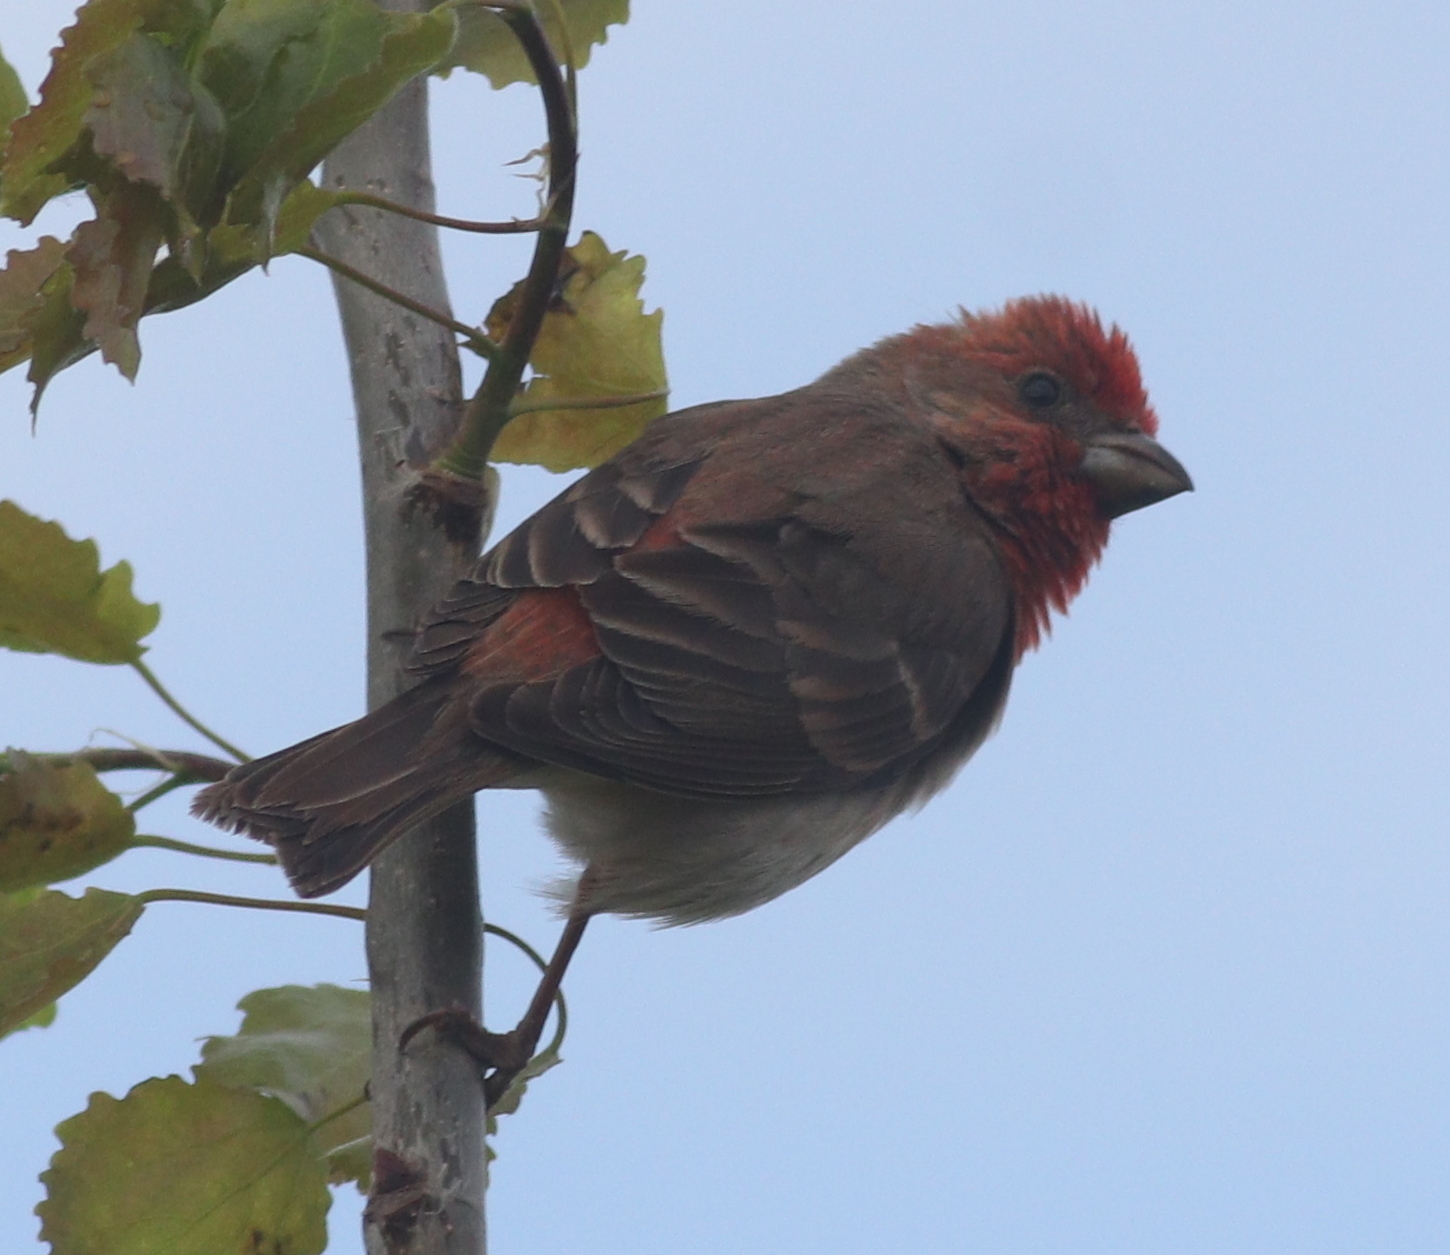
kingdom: Animalia
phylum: Chordata
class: Aves
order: Passeriformes
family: Fringillidae
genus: Carpodacus
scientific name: Carpodacus erythrinus
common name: Common rosefinch
